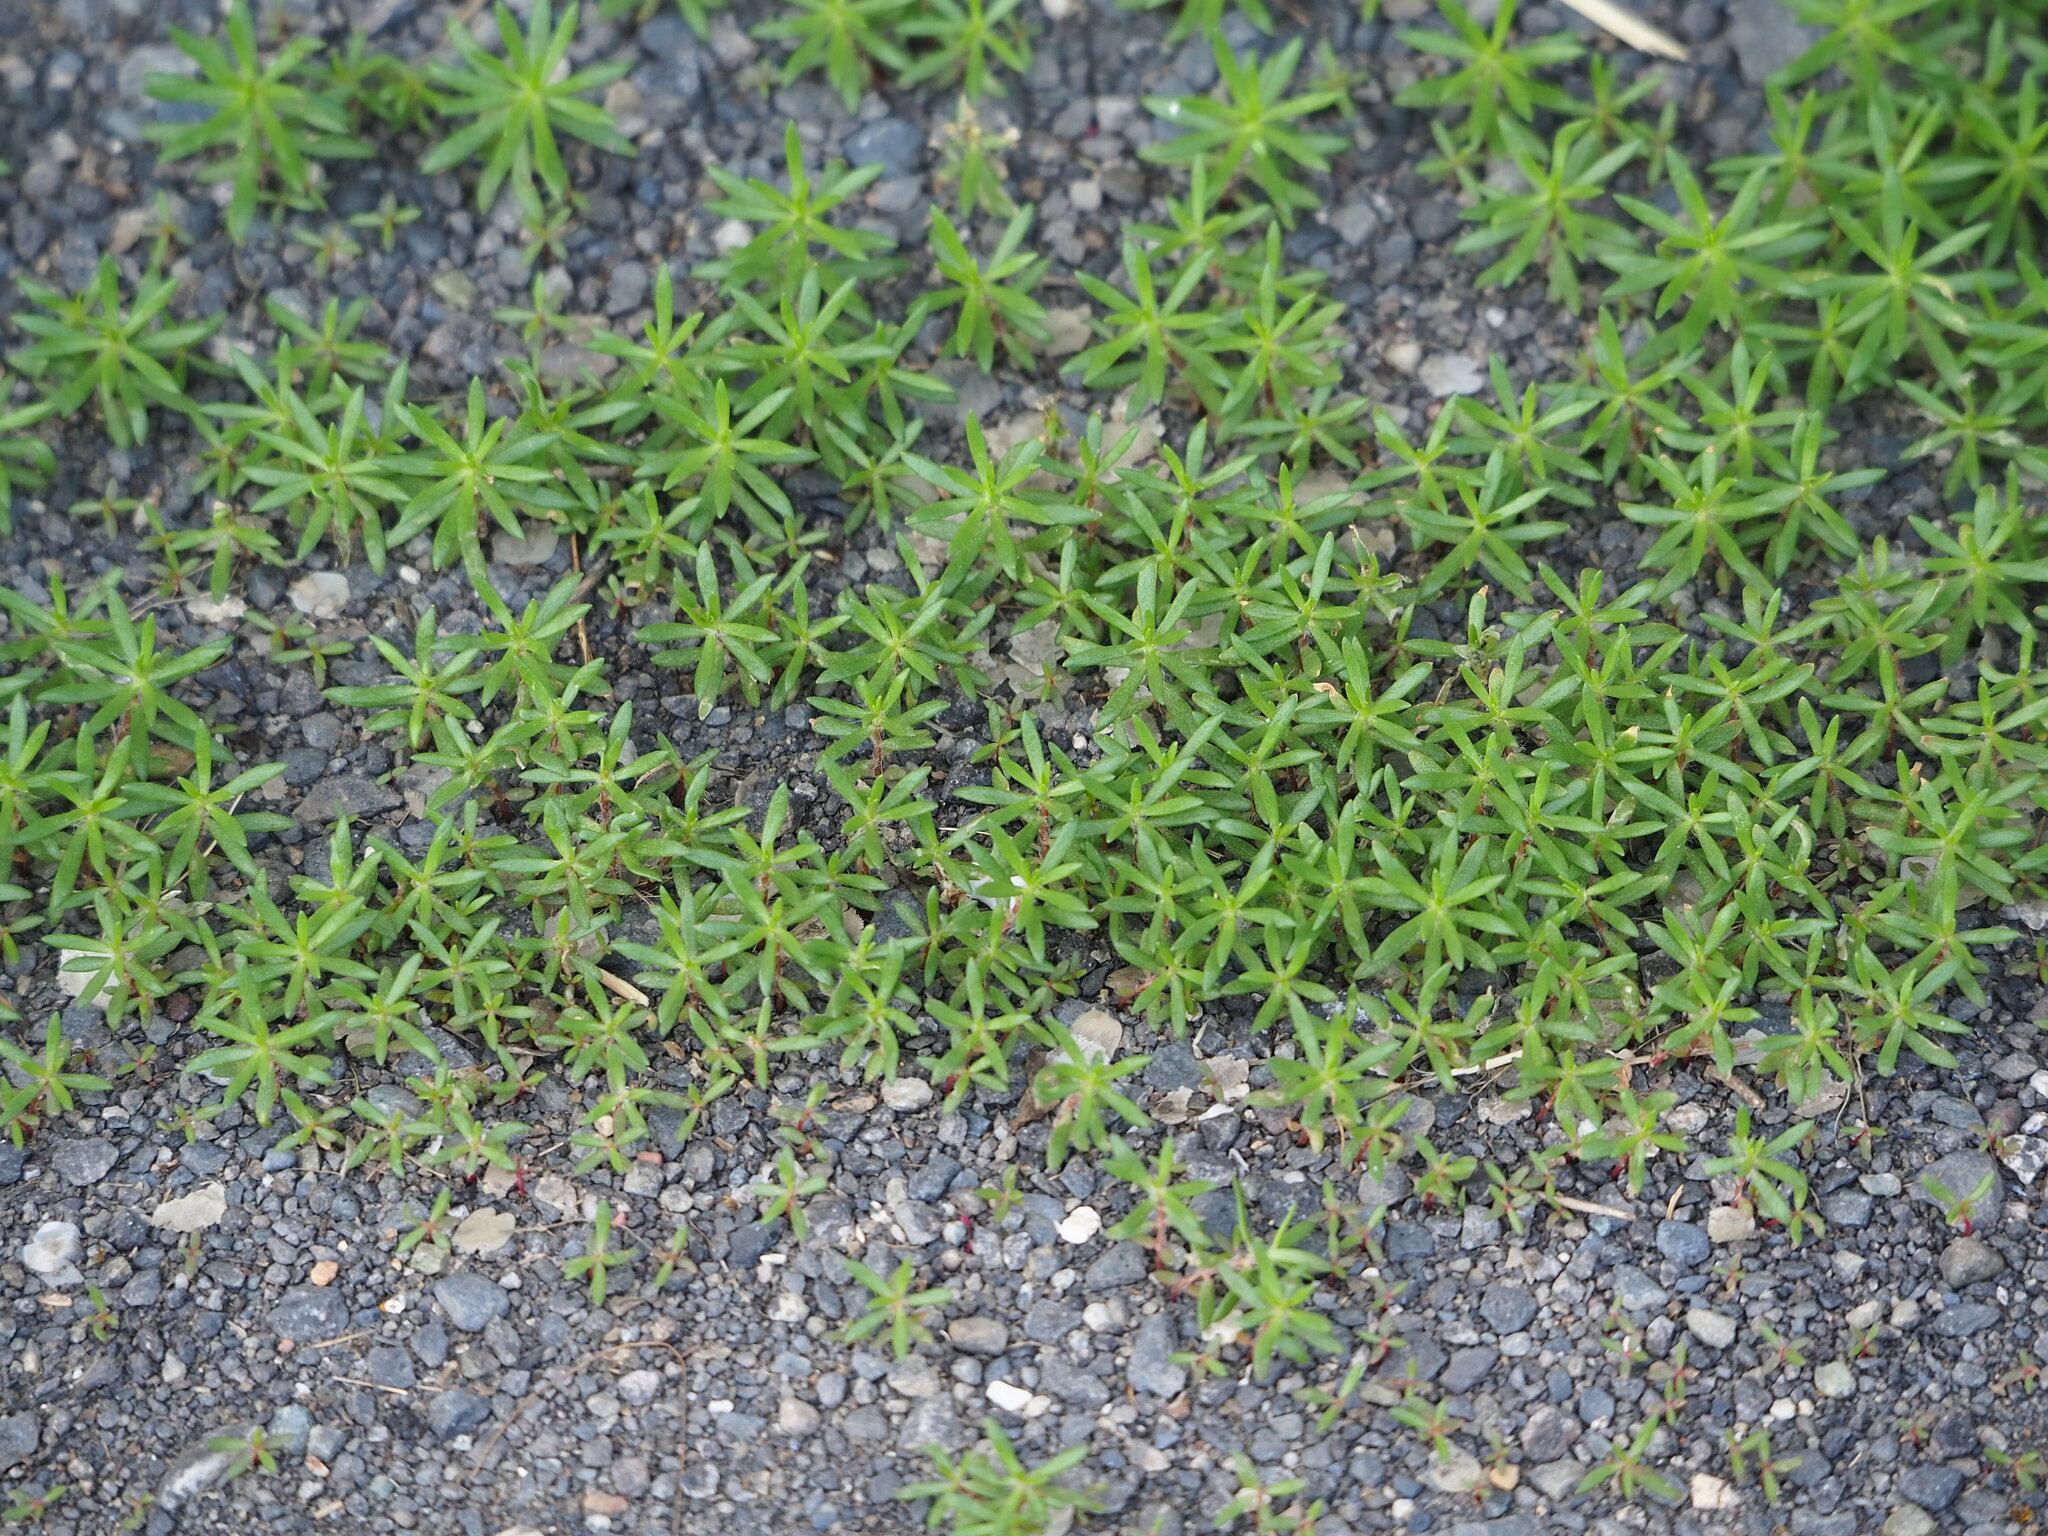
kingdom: Plantae
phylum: Tracheophyta
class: Magnoliopsida
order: Caryophyllales
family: Portulacaceae
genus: Portulaca
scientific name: Portulaca pilosa
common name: Kiss me quick
